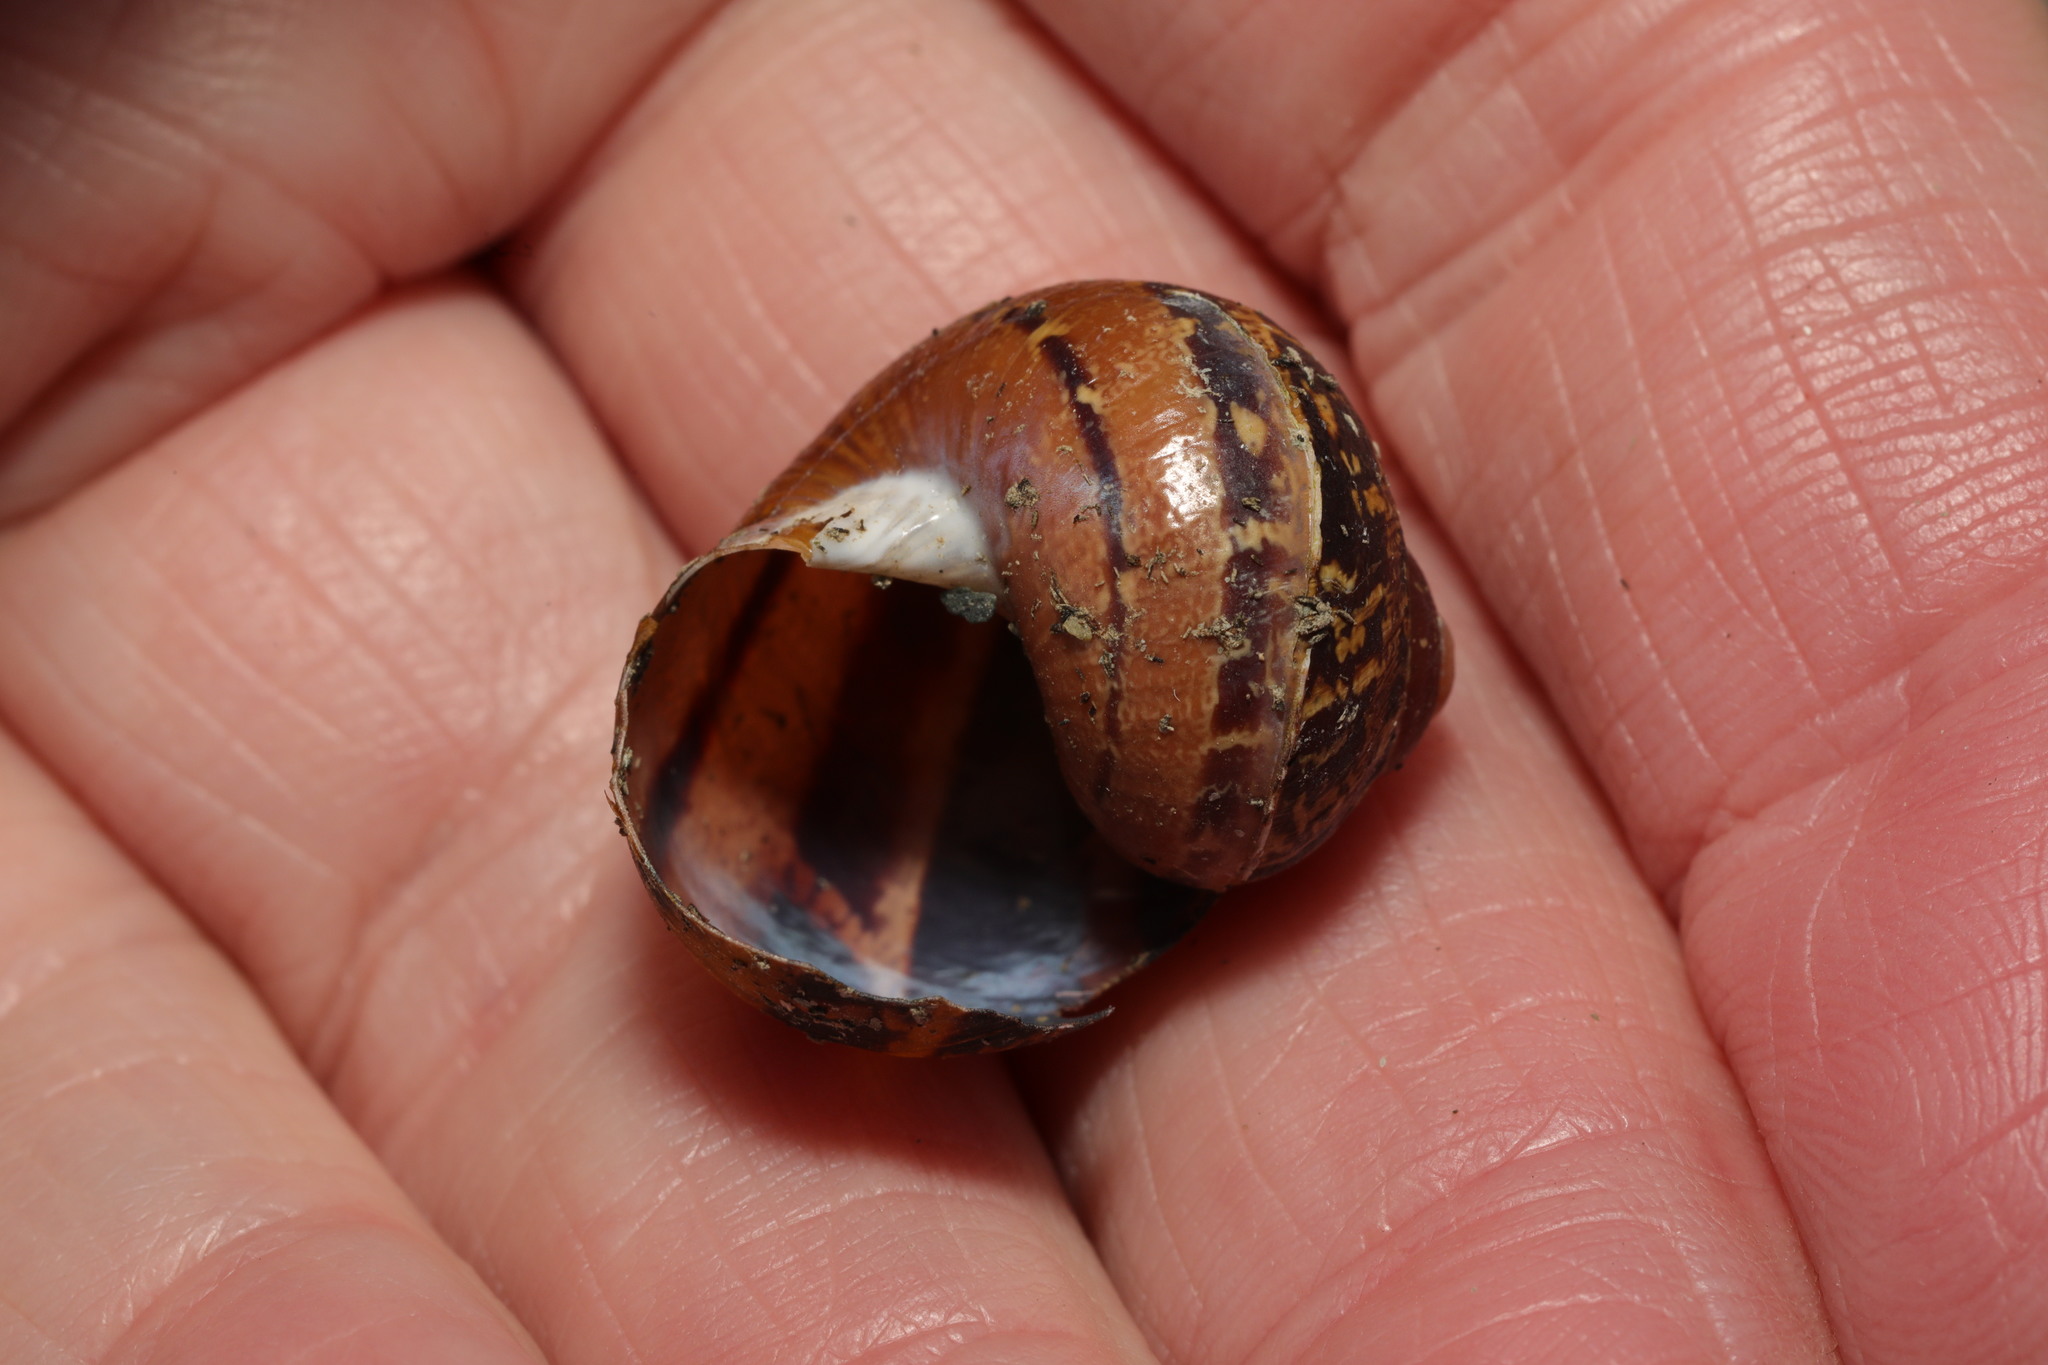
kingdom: Animalia
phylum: Mollusca
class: Gastropoda
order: Stylommatophora
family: Helicidae
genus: Cornu
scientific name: Cornu aspersum
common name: Brown garden snail
